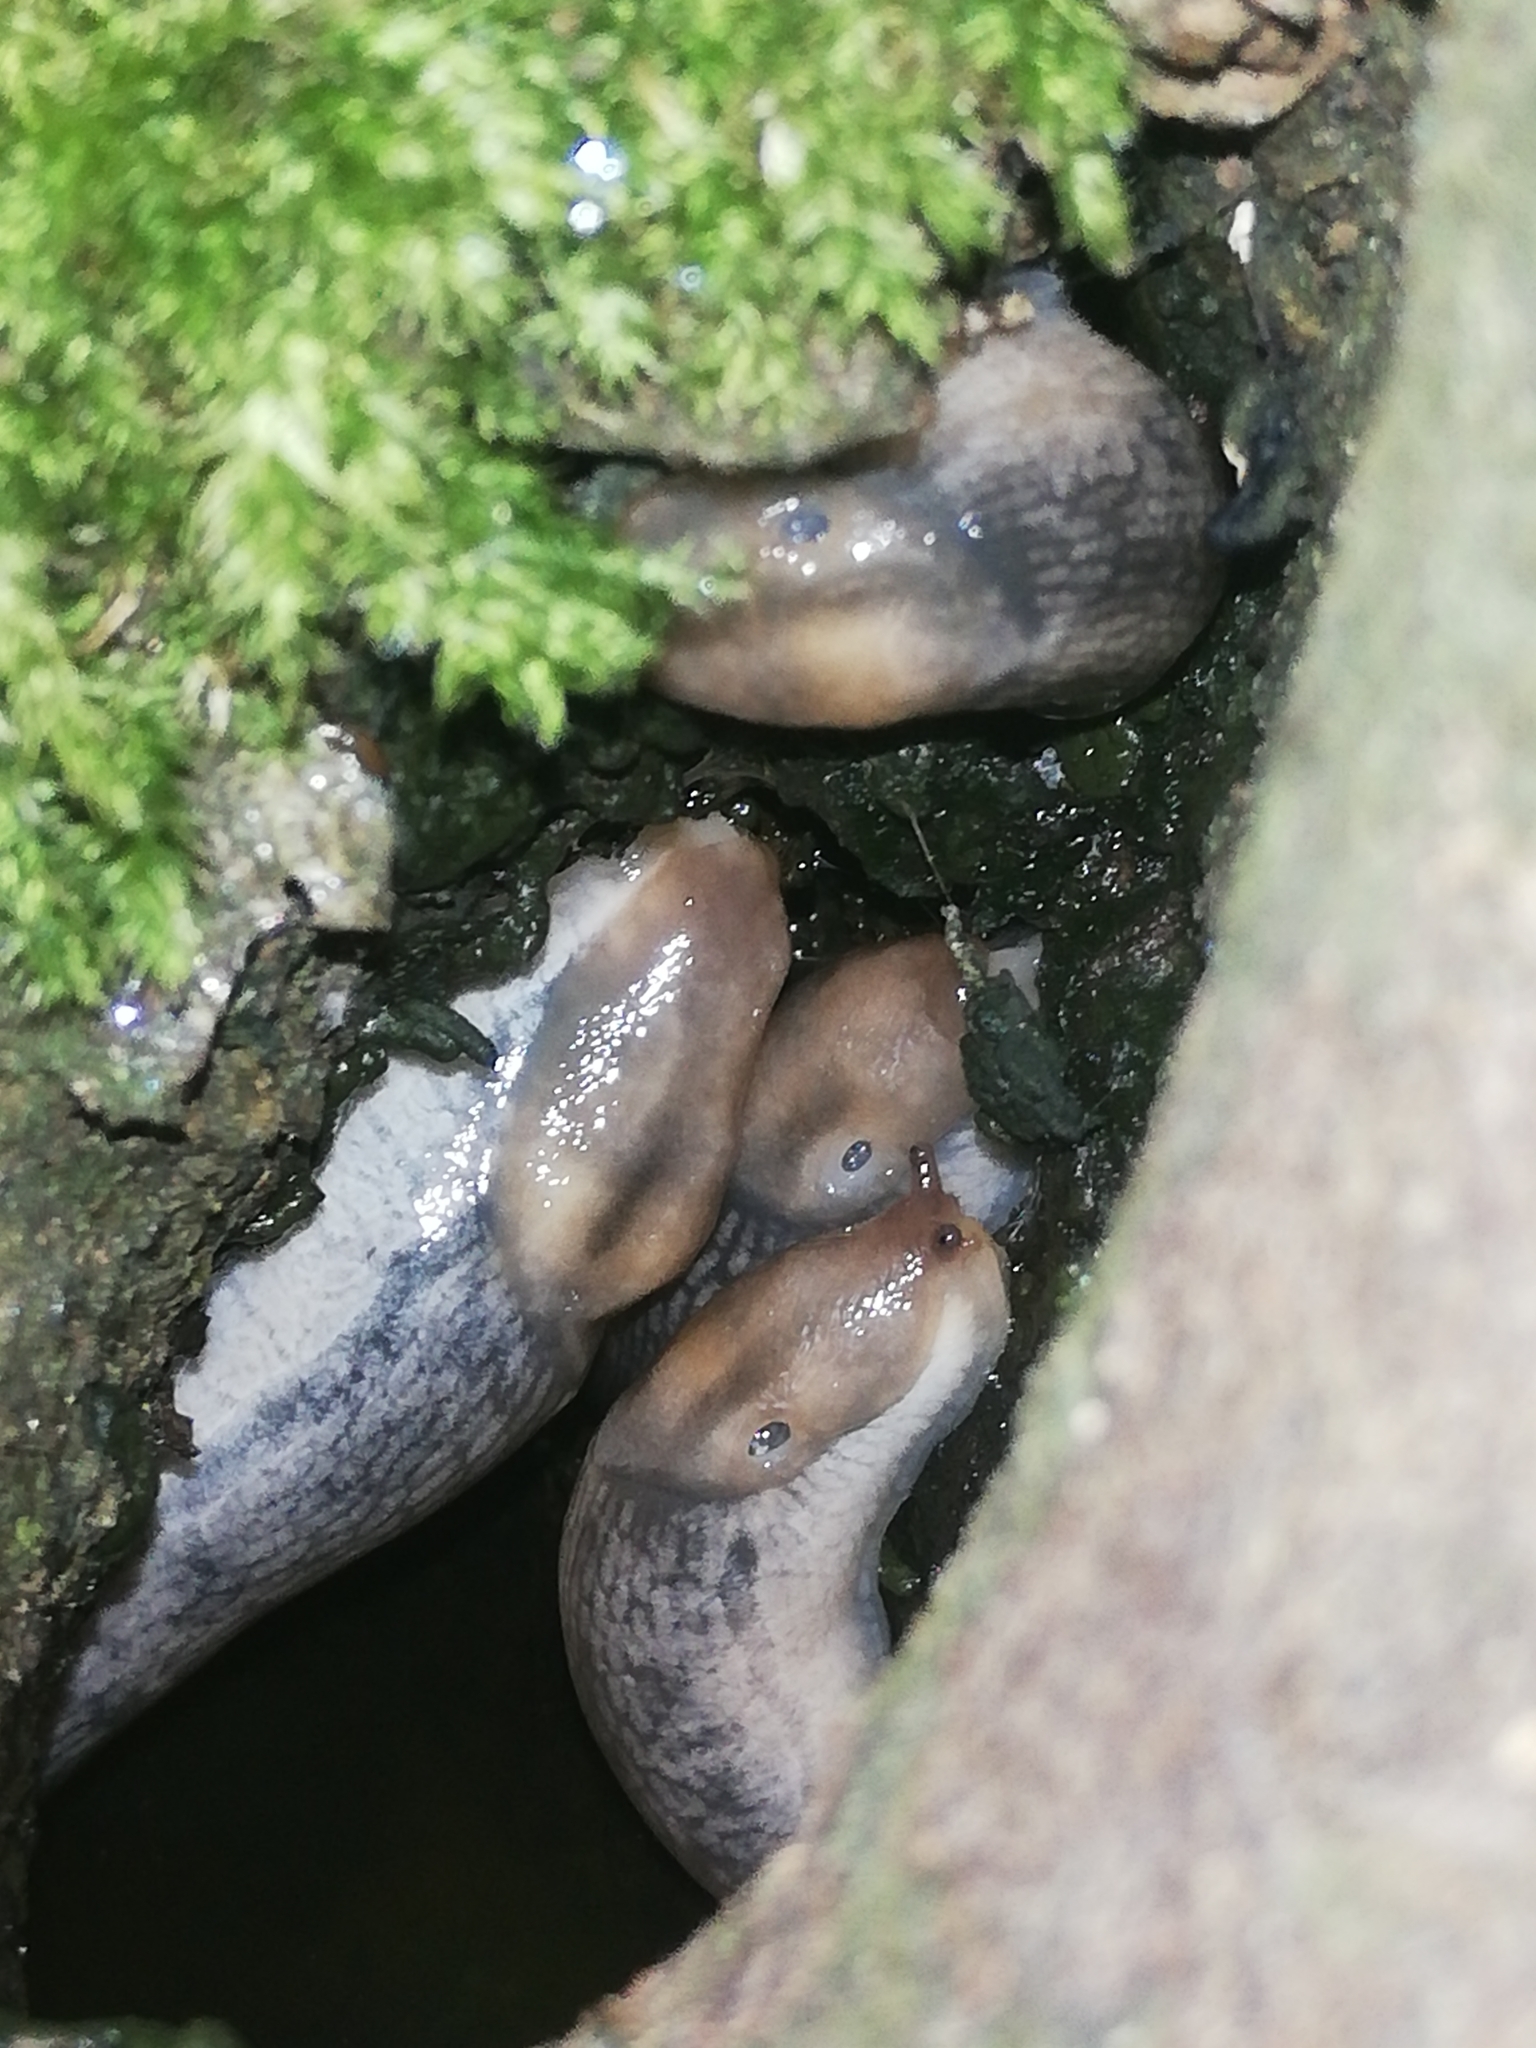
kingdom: Animalia
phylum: Mollusca
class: Gastropoda
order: Stylommatophora
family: Limacidae
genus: Lehmannia
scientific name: Lehmannia marginata
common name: Tree slug
